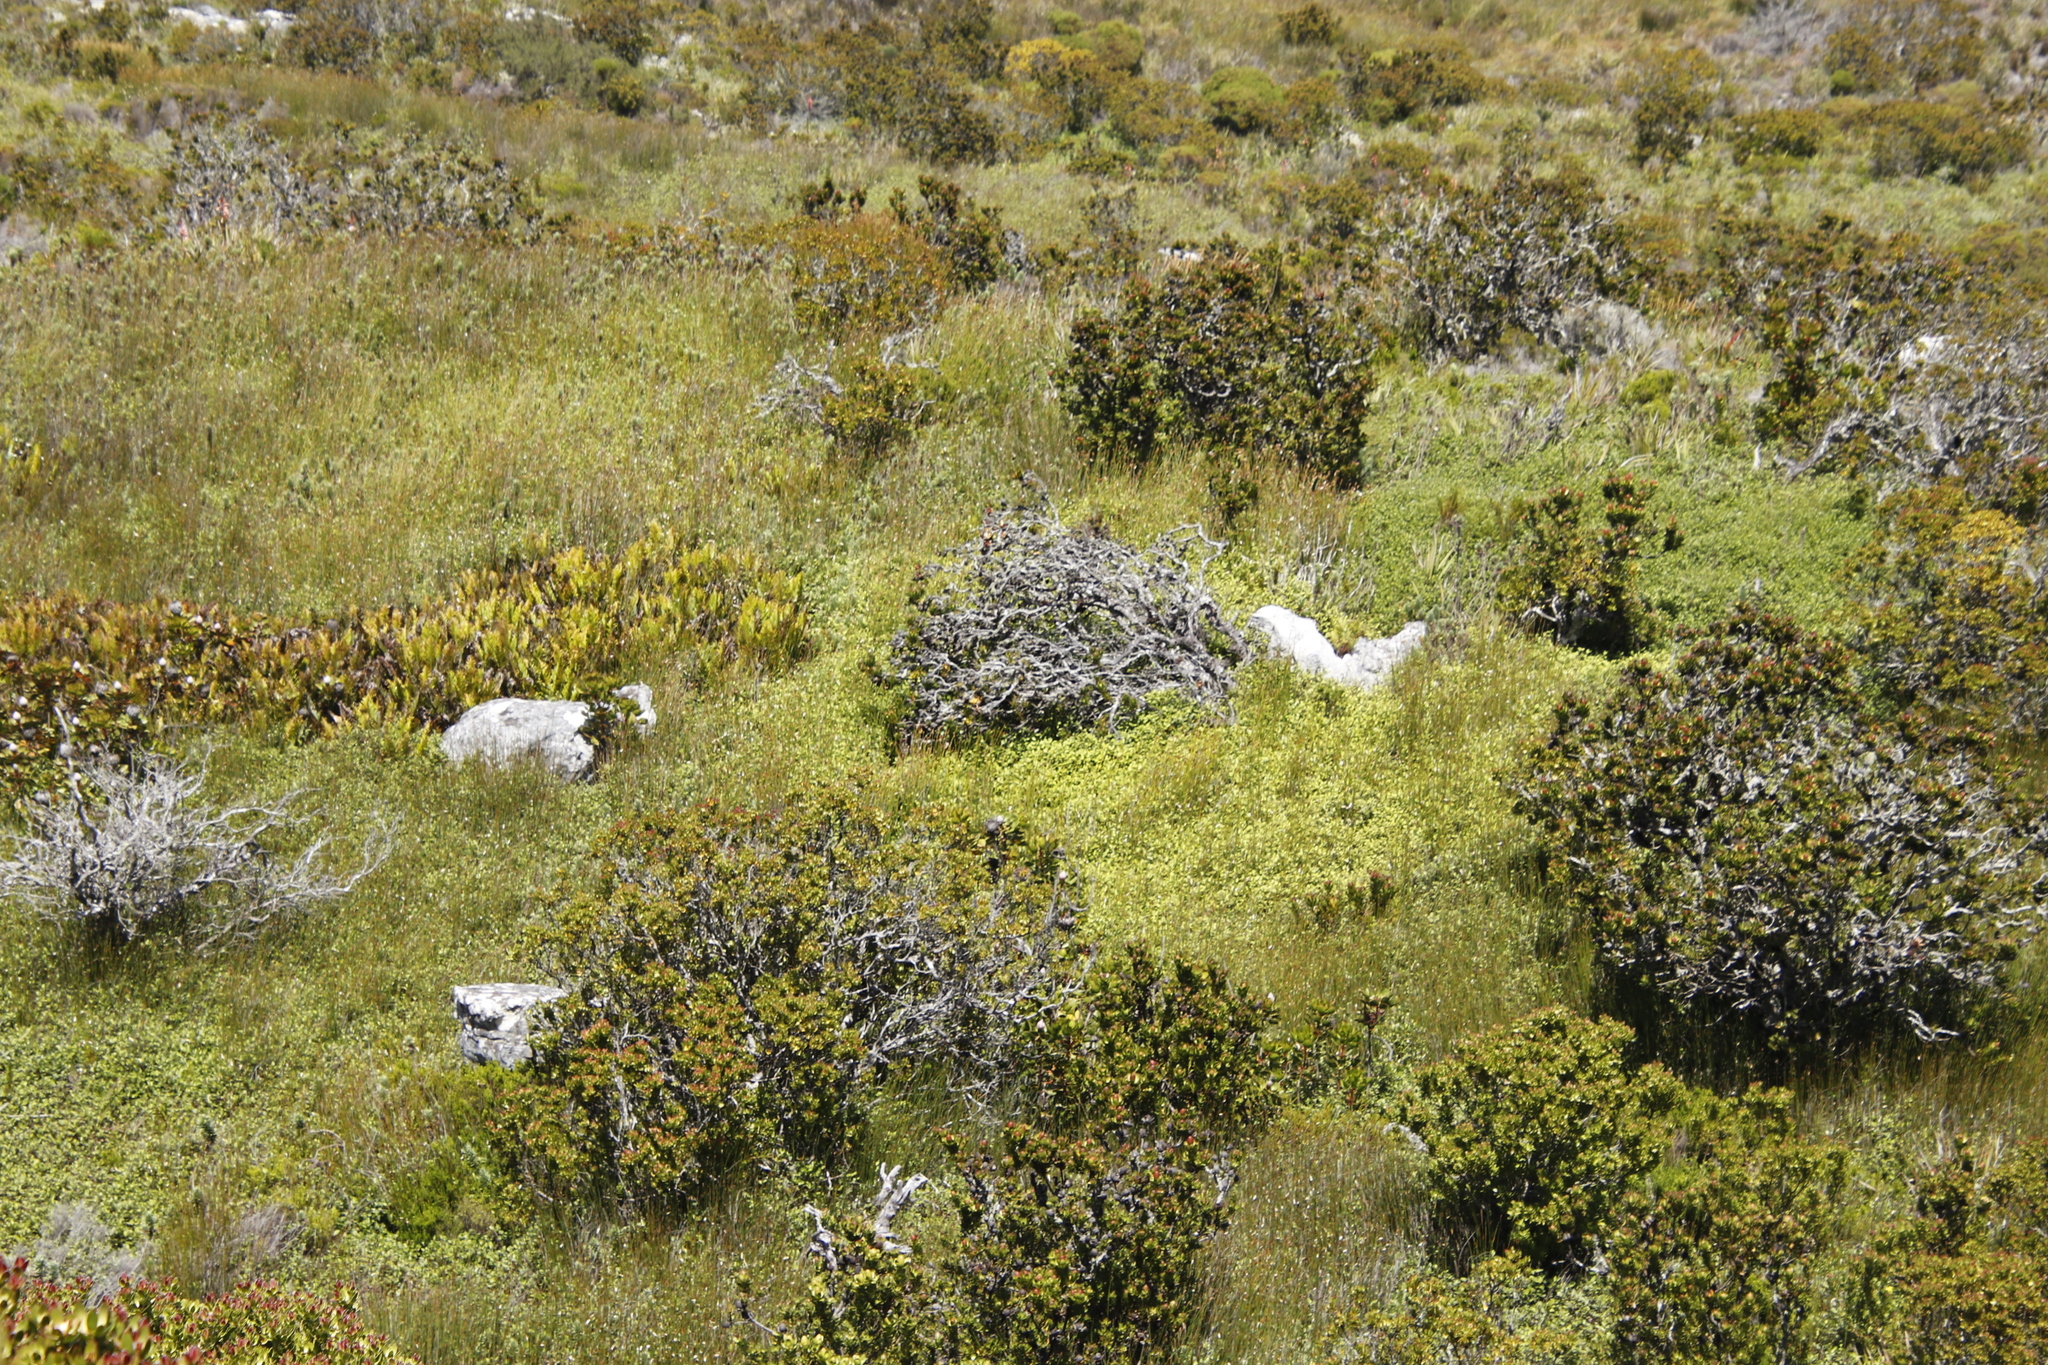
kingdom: Plantae
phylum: Tracheophyta
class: Magnoliopsida
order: Proteales
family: Proteaceae
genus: Leucadendron
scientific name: Leucadendron strobilinum
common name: Mountain rose
